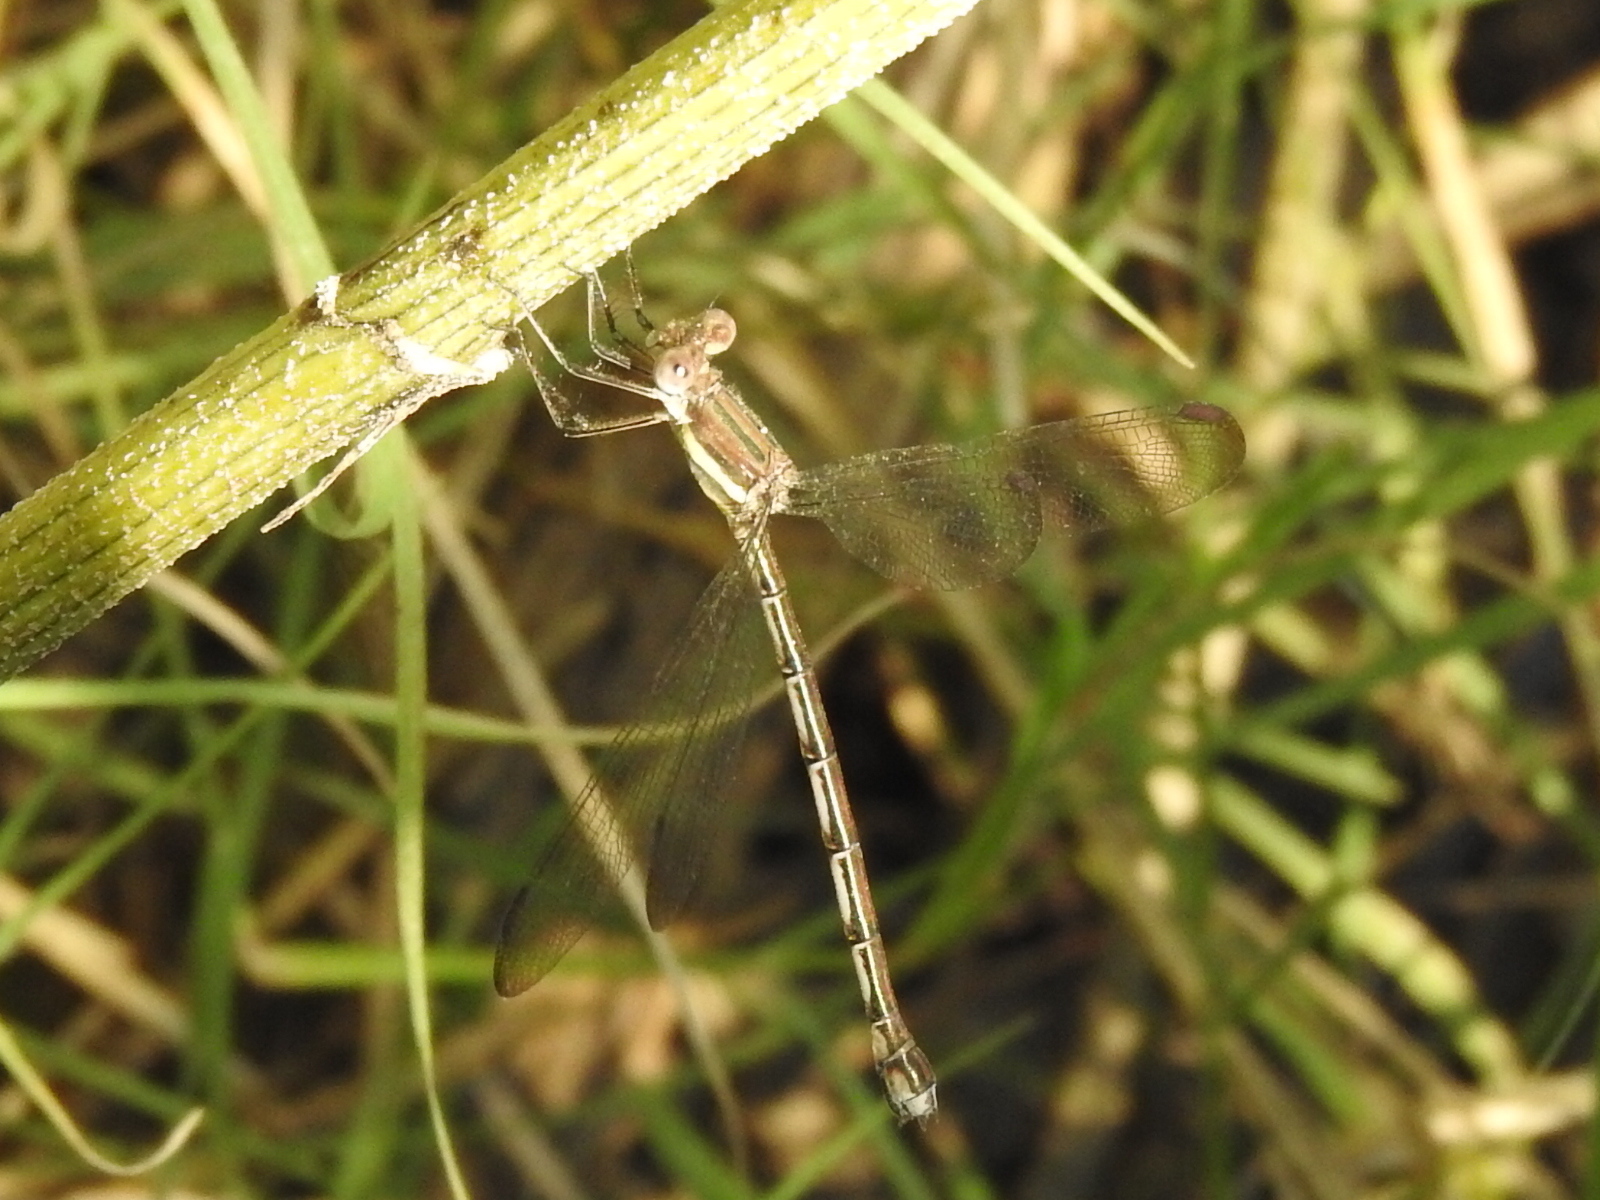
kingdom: Animalia
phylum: Arthropoda
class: Insecta
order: Odonata
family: Lestidae
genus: Archilestes
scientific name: Archilestes grandis
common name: Great spreadwing
